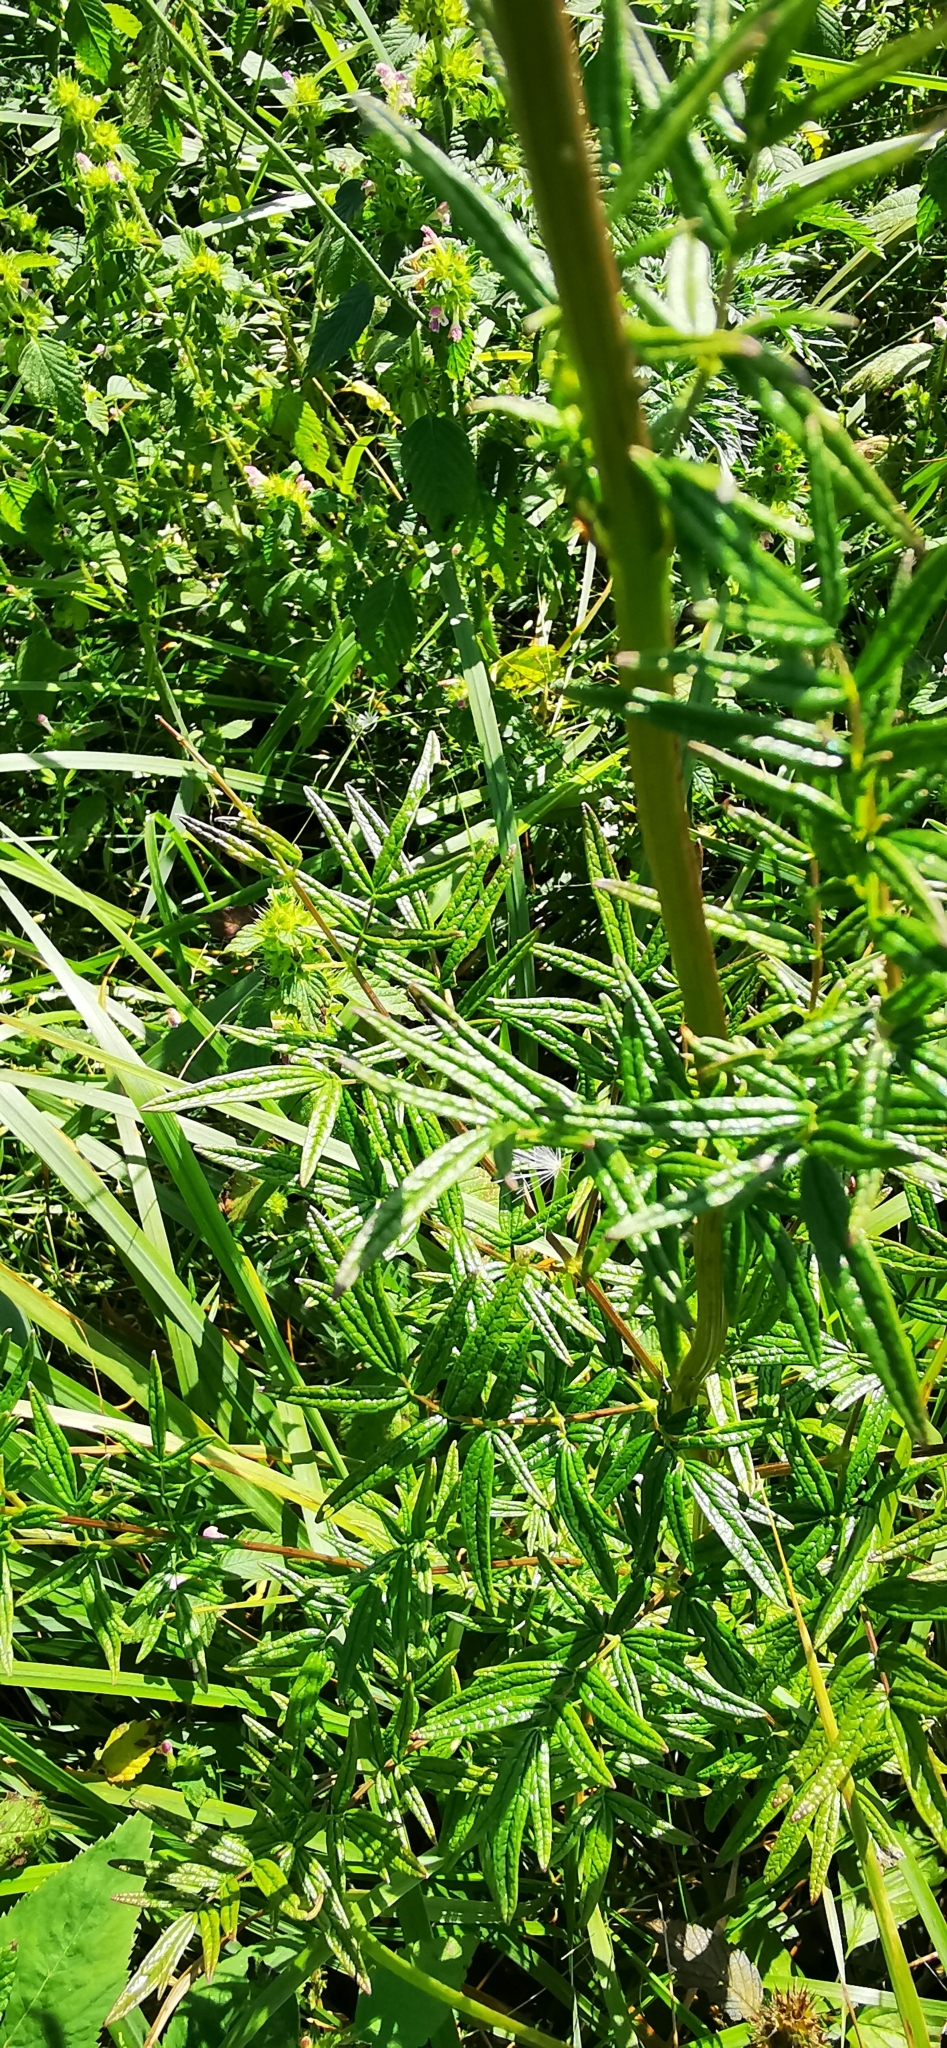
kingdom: Plantae
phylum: Tracheophyta
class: Magnoliopsida
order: Ranunculales
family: Ranunculaceae
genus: Thalictrum
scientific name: Thalictrum lucidum
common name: Shining meadow-rue
